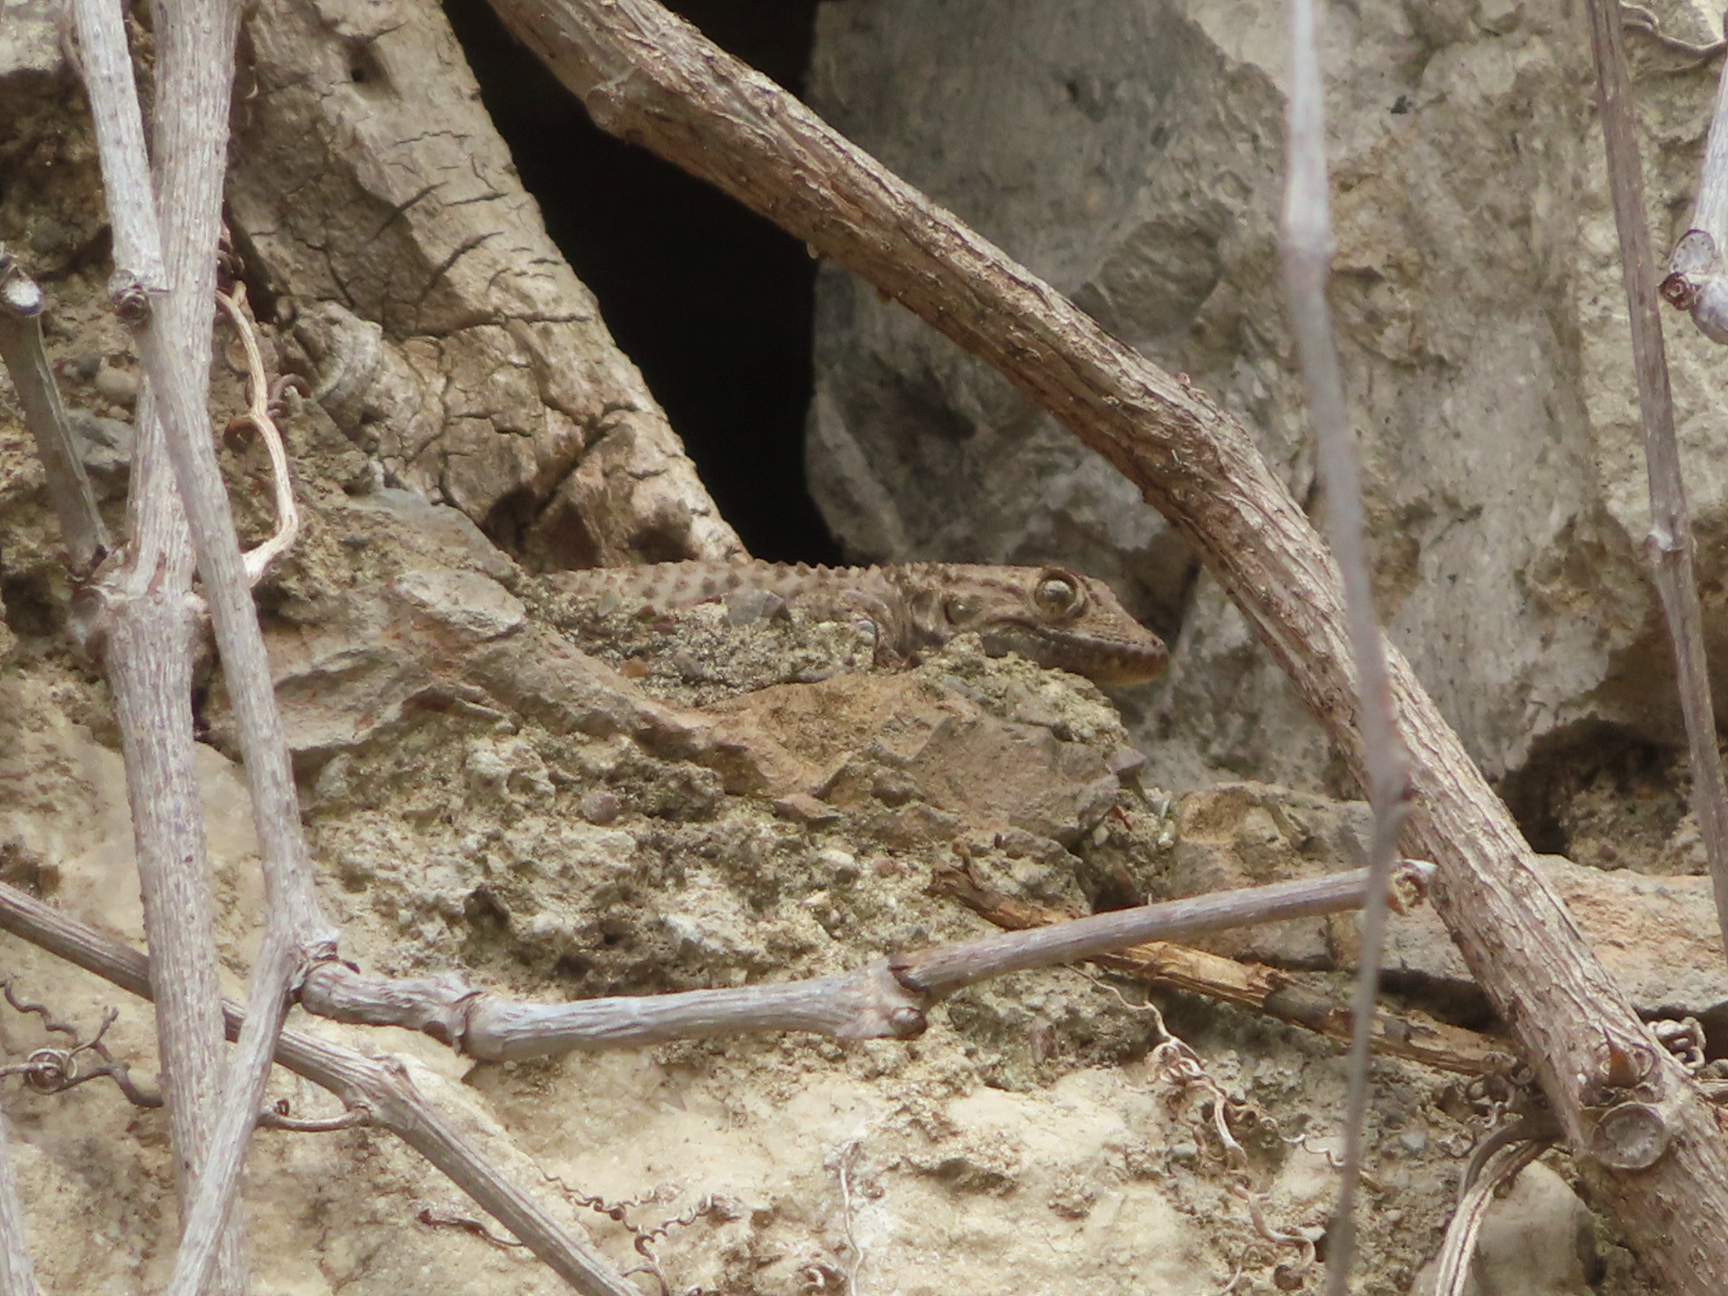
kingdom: Animalia
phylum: Chordata
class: Squamata
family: Phyllodactylidae
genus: Tarentola
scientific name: Tarentola mauritanica
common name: Moorish gecko
